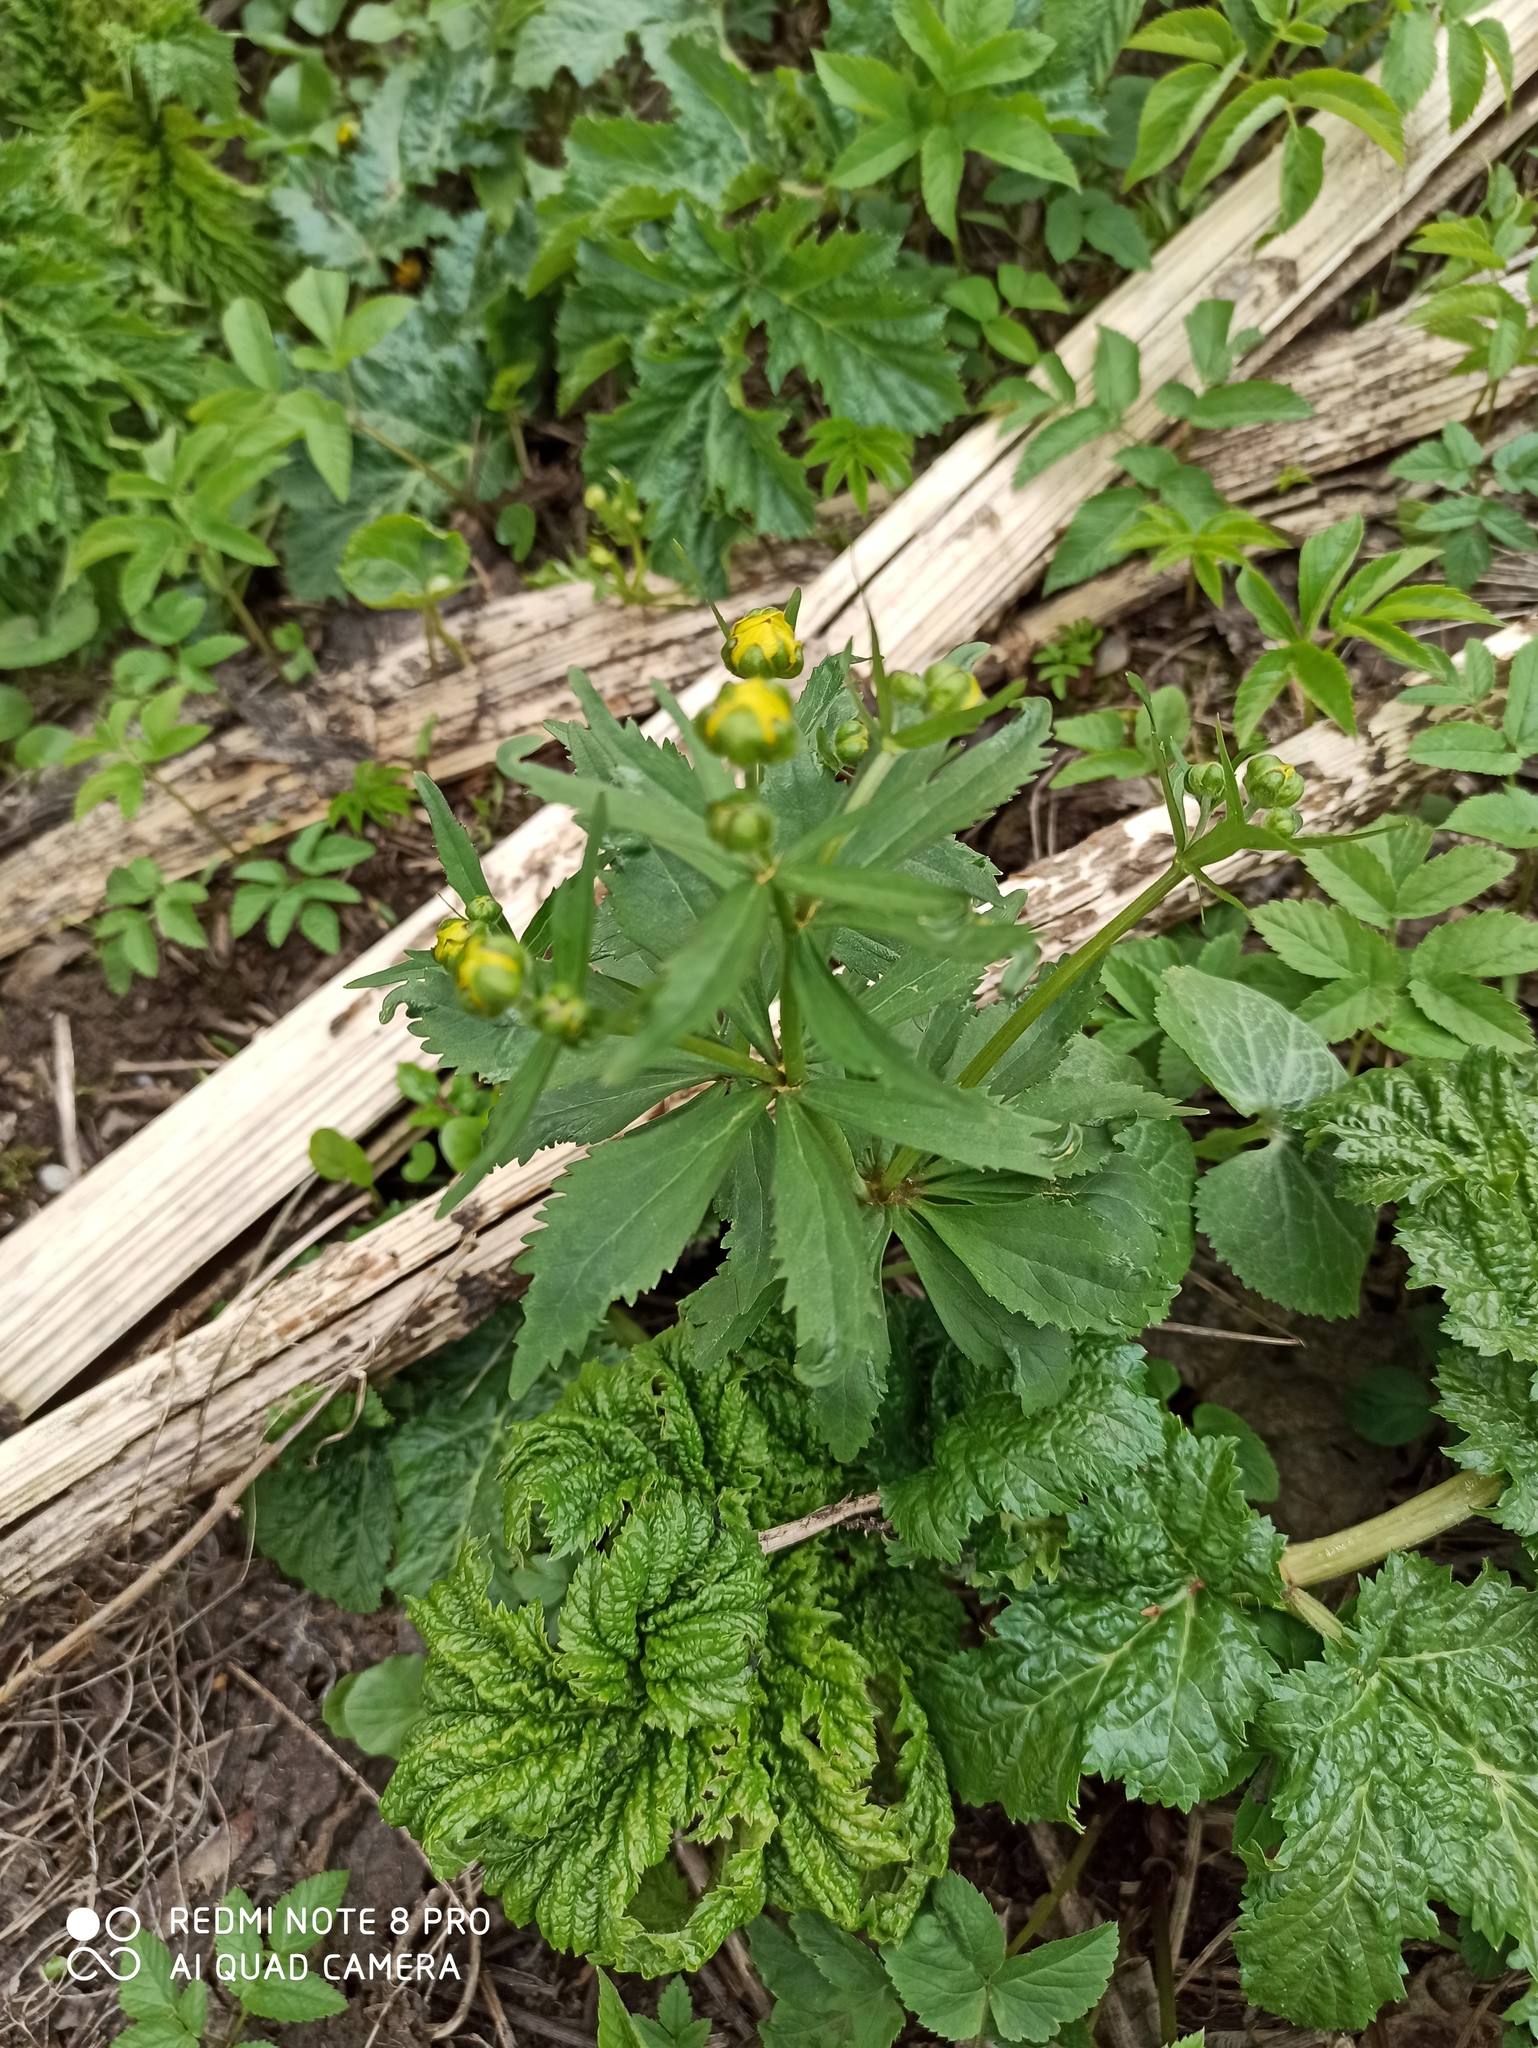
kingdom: Plantae
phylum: Tracheophyta
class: Magnoliopsida
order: Ranunculales
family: Ranunculaceae
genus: Ranunculus
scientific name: Ranunculus cassubicus
